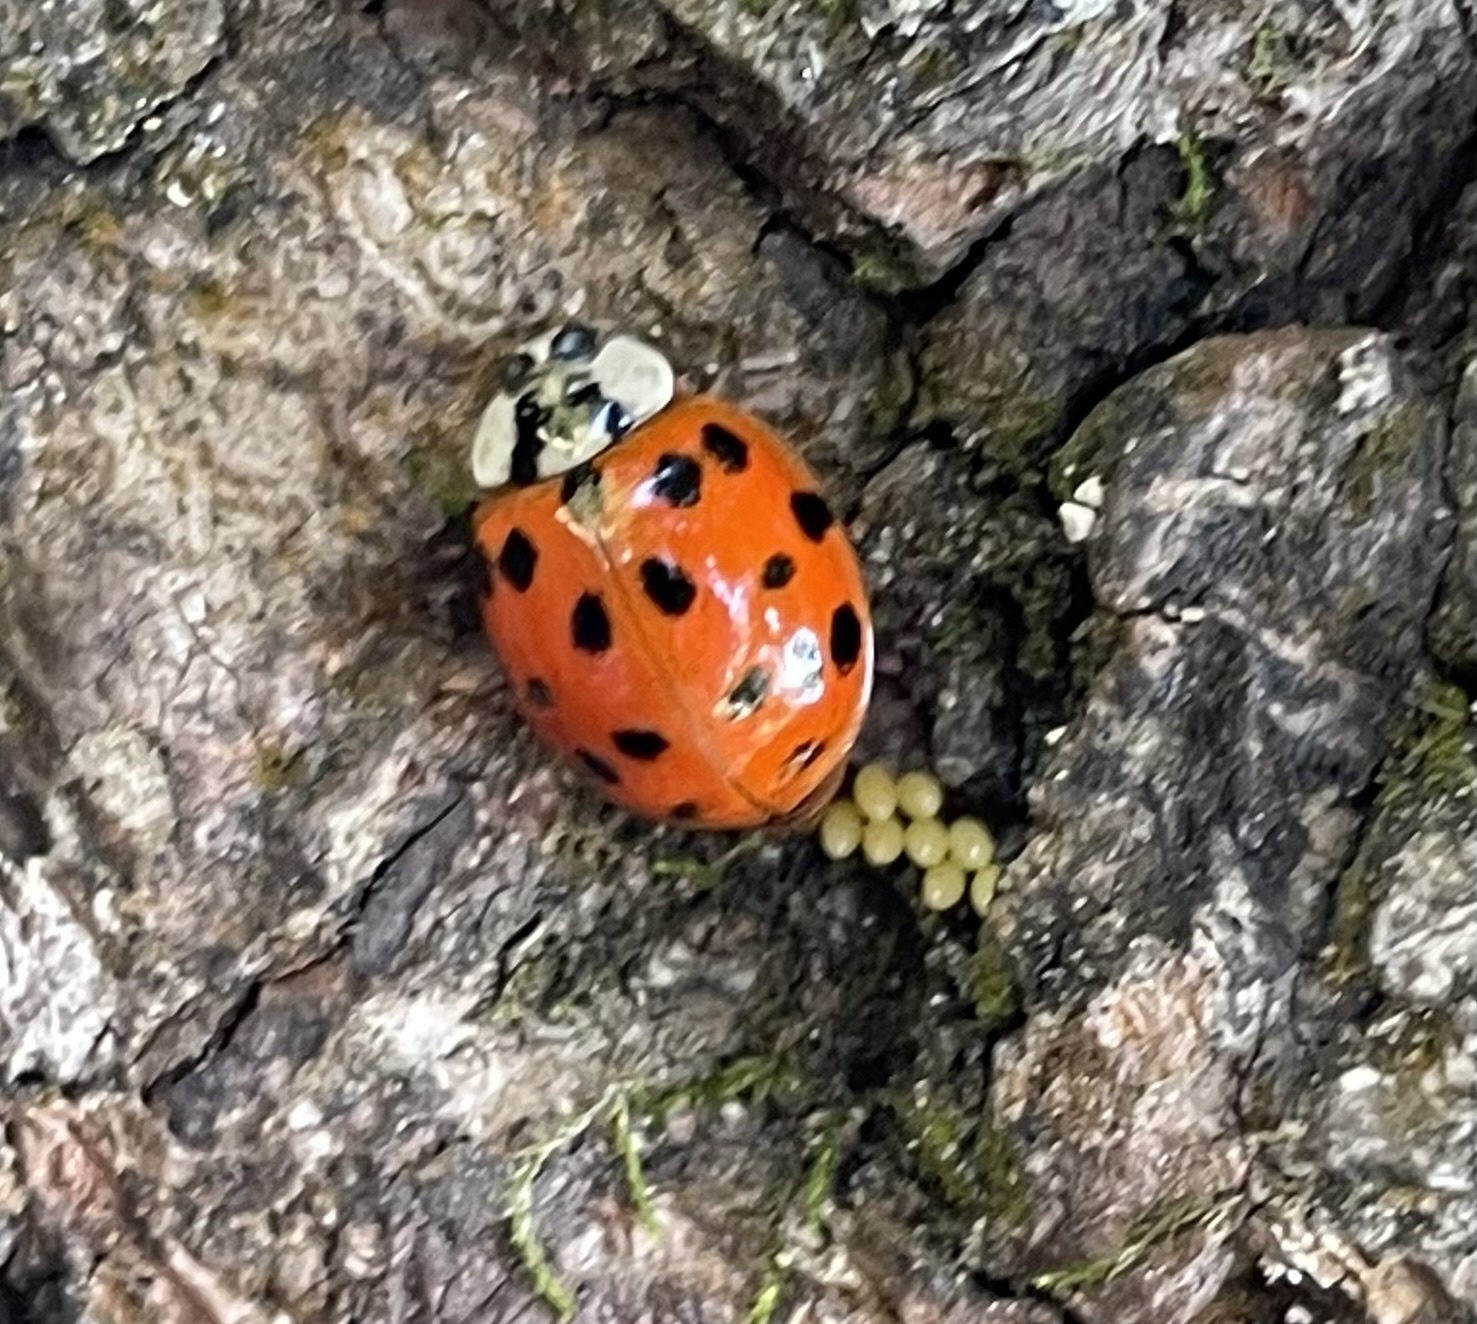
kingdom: Animalia
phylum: Arthropoda
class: Insecta
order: Coleoptera
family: Coccinellidae
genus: Harmonia
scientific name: Harmonia axyridis
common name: Harlequin ladybird
